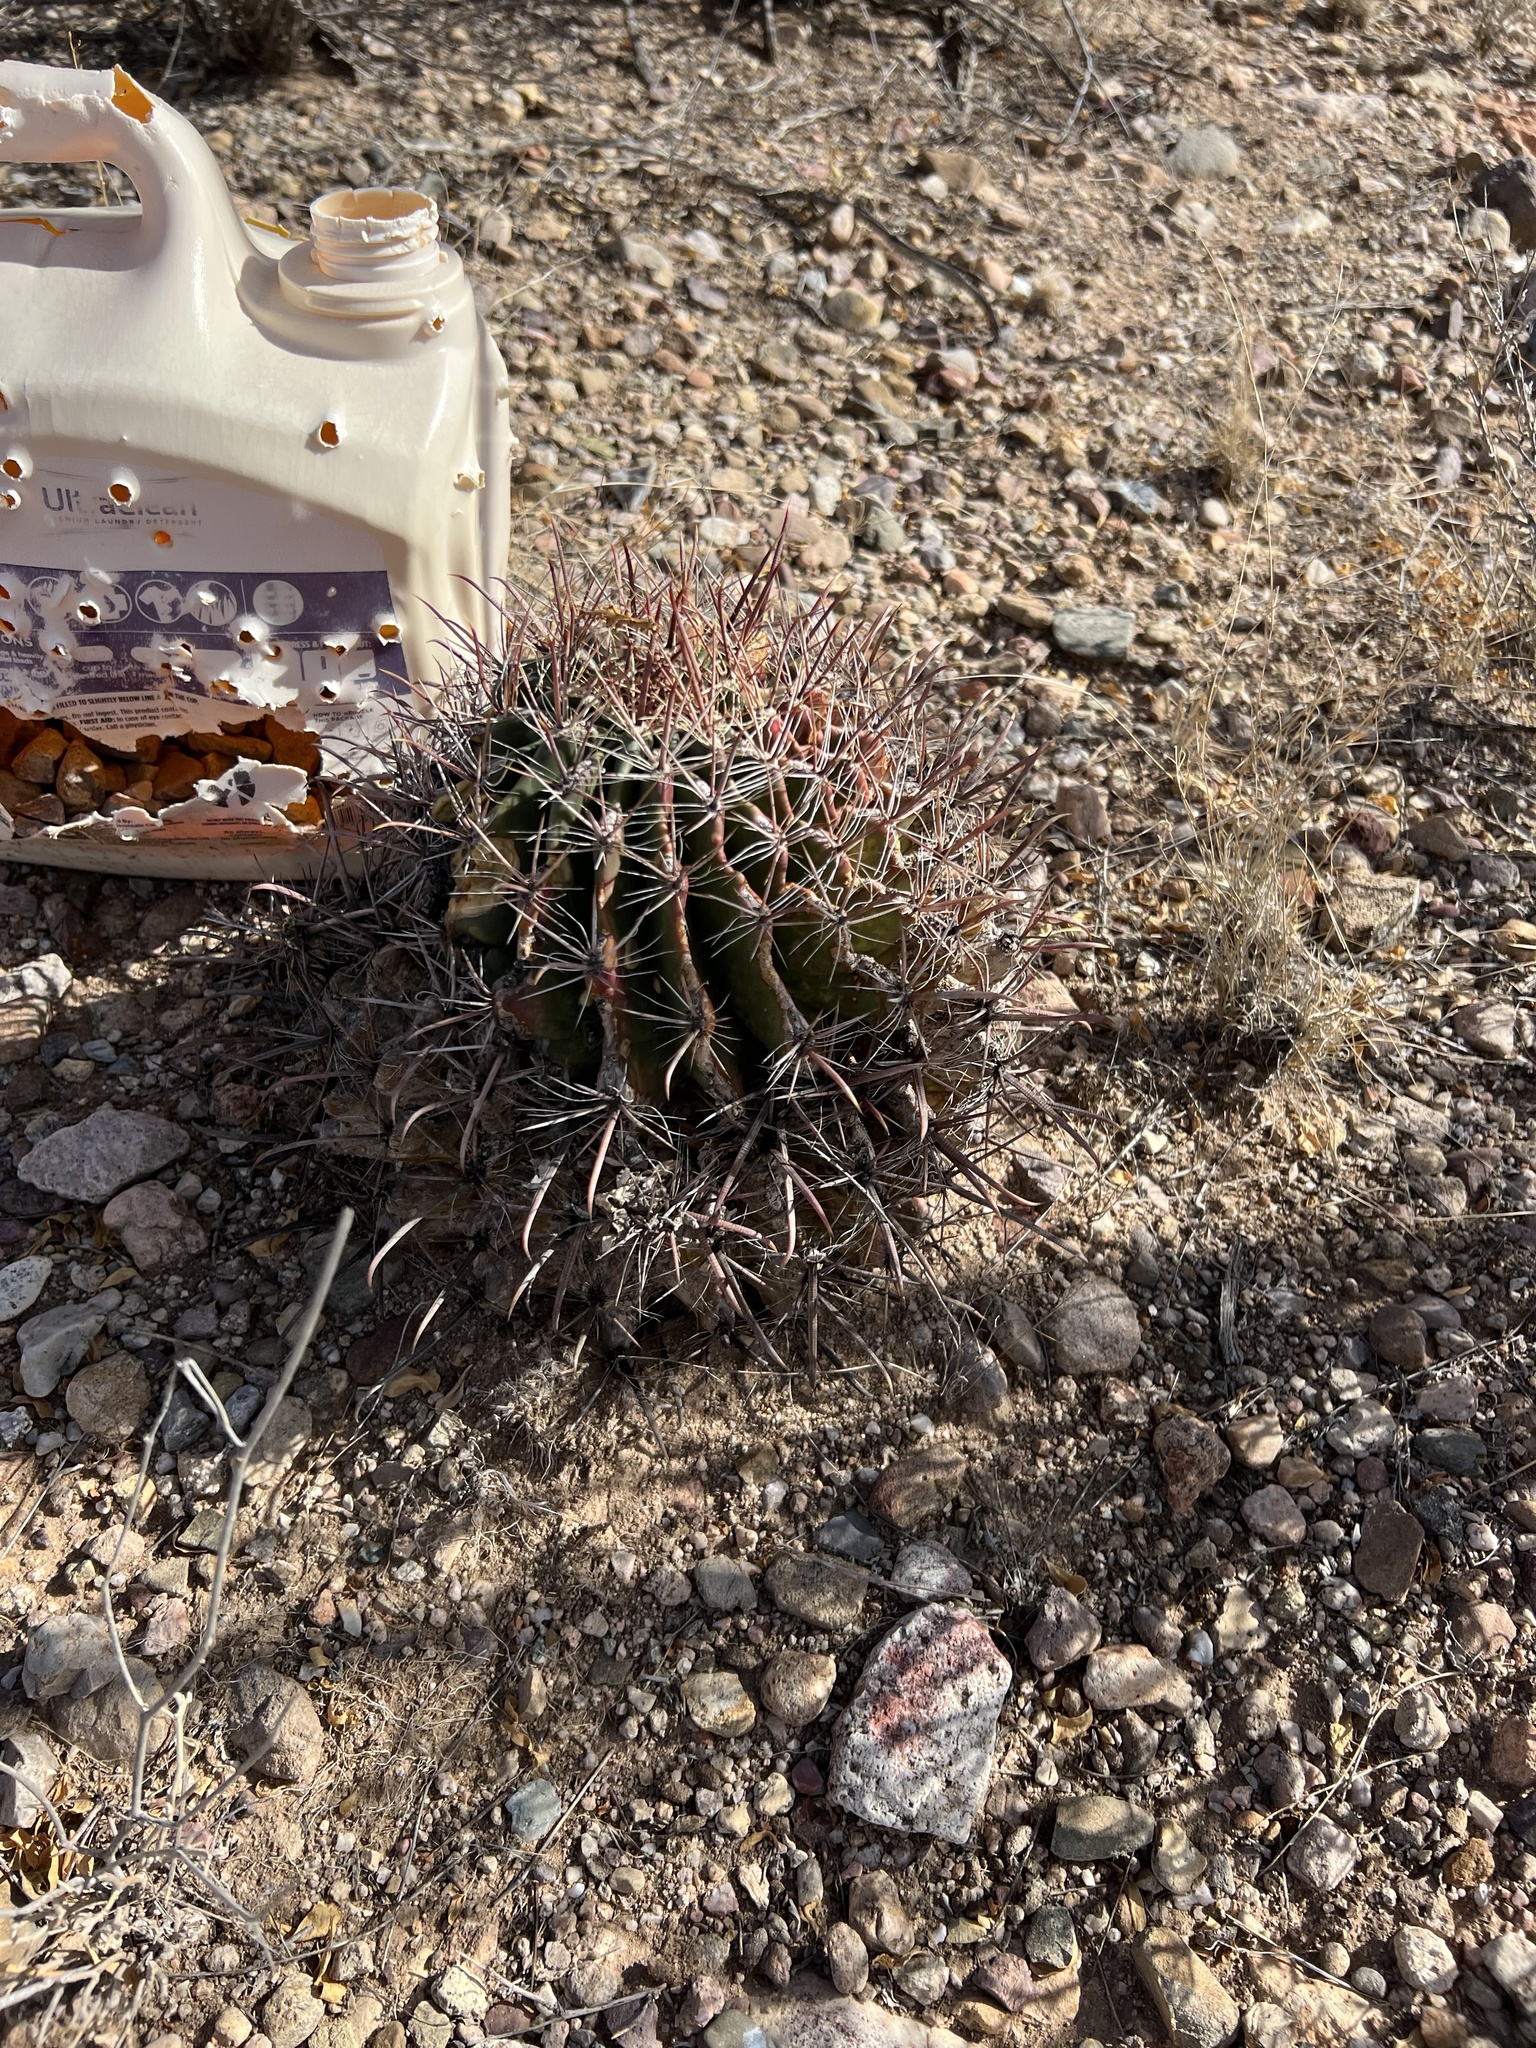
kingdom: Plantae
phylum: Tracheophyta
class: Magnoliopsida
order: Caryophyllales
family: Cactaceae
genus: Ferocactus
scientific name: Ferocactus wislizeni
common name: Candy barrel cactus
